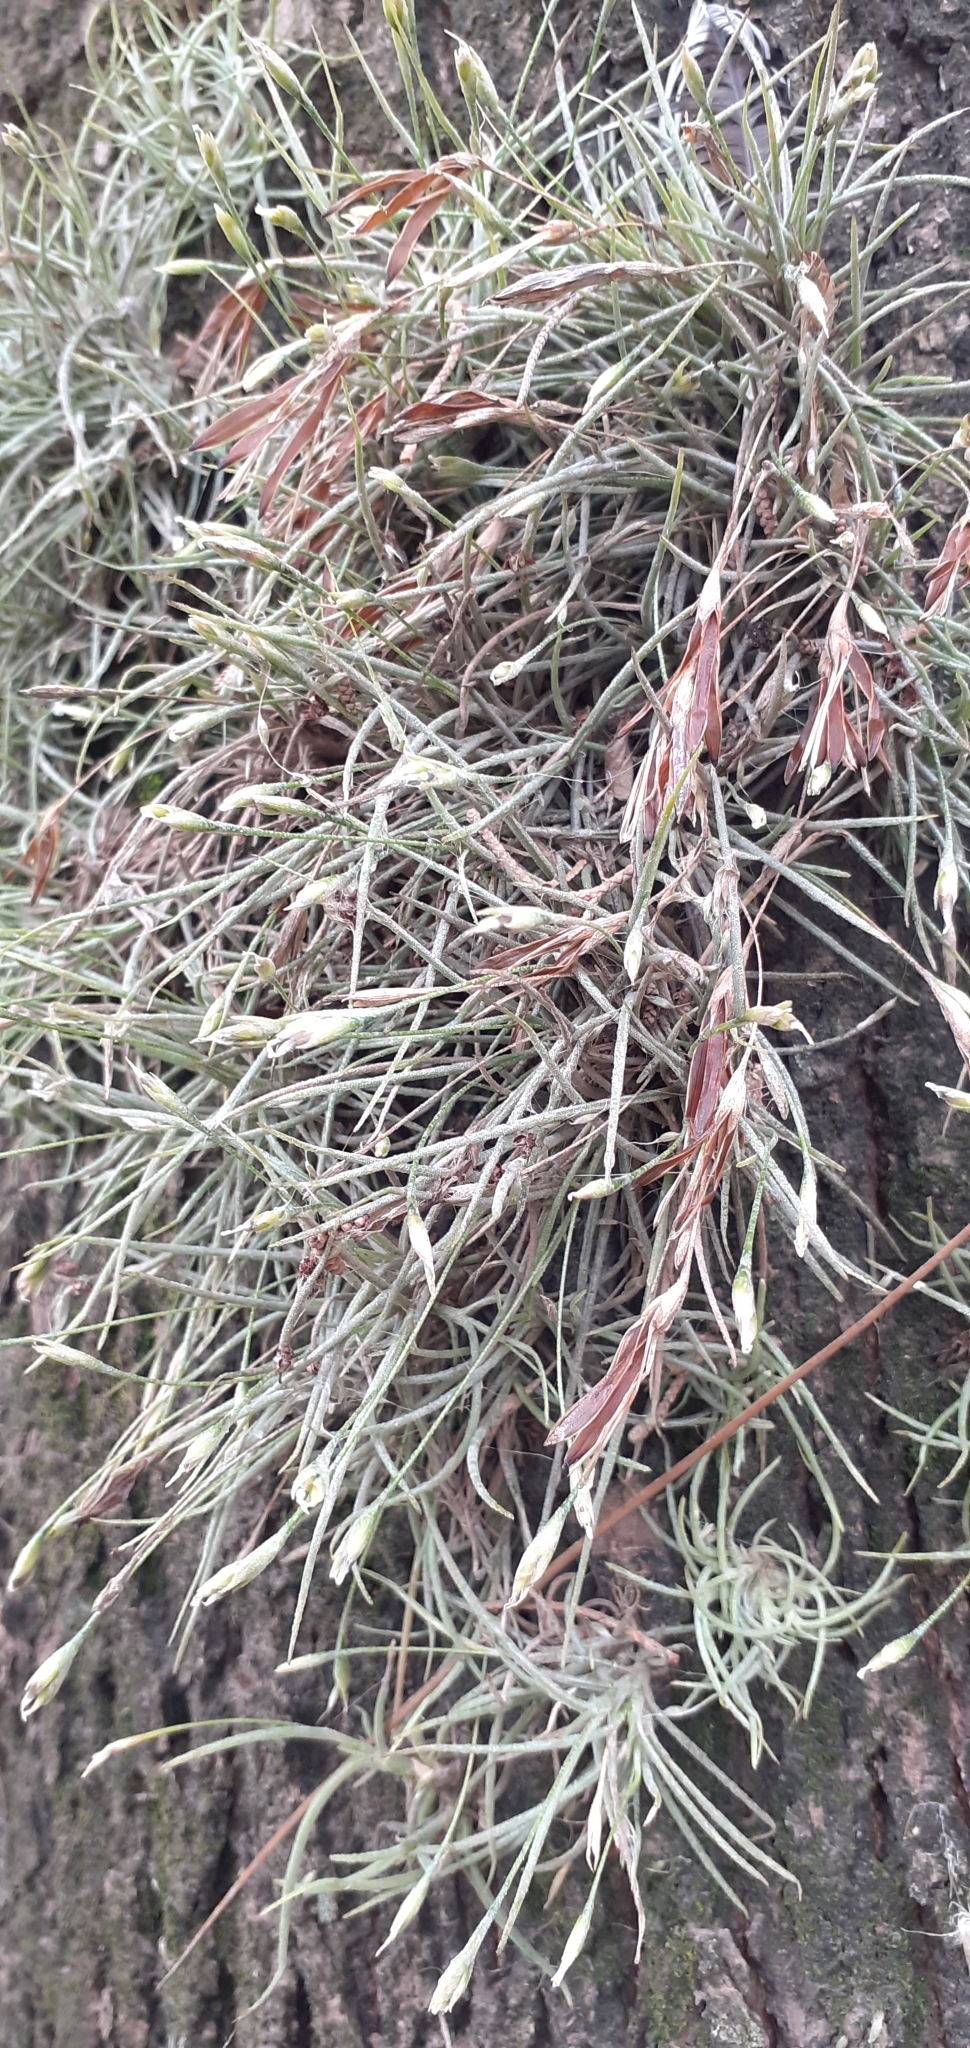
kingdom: Plantae
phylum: Tracheophyta
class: Liliopsida
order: Poales
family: Bromeliaceae
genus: Tillandsia
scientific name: Tillandsia recurvata
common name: Small ballmoss
